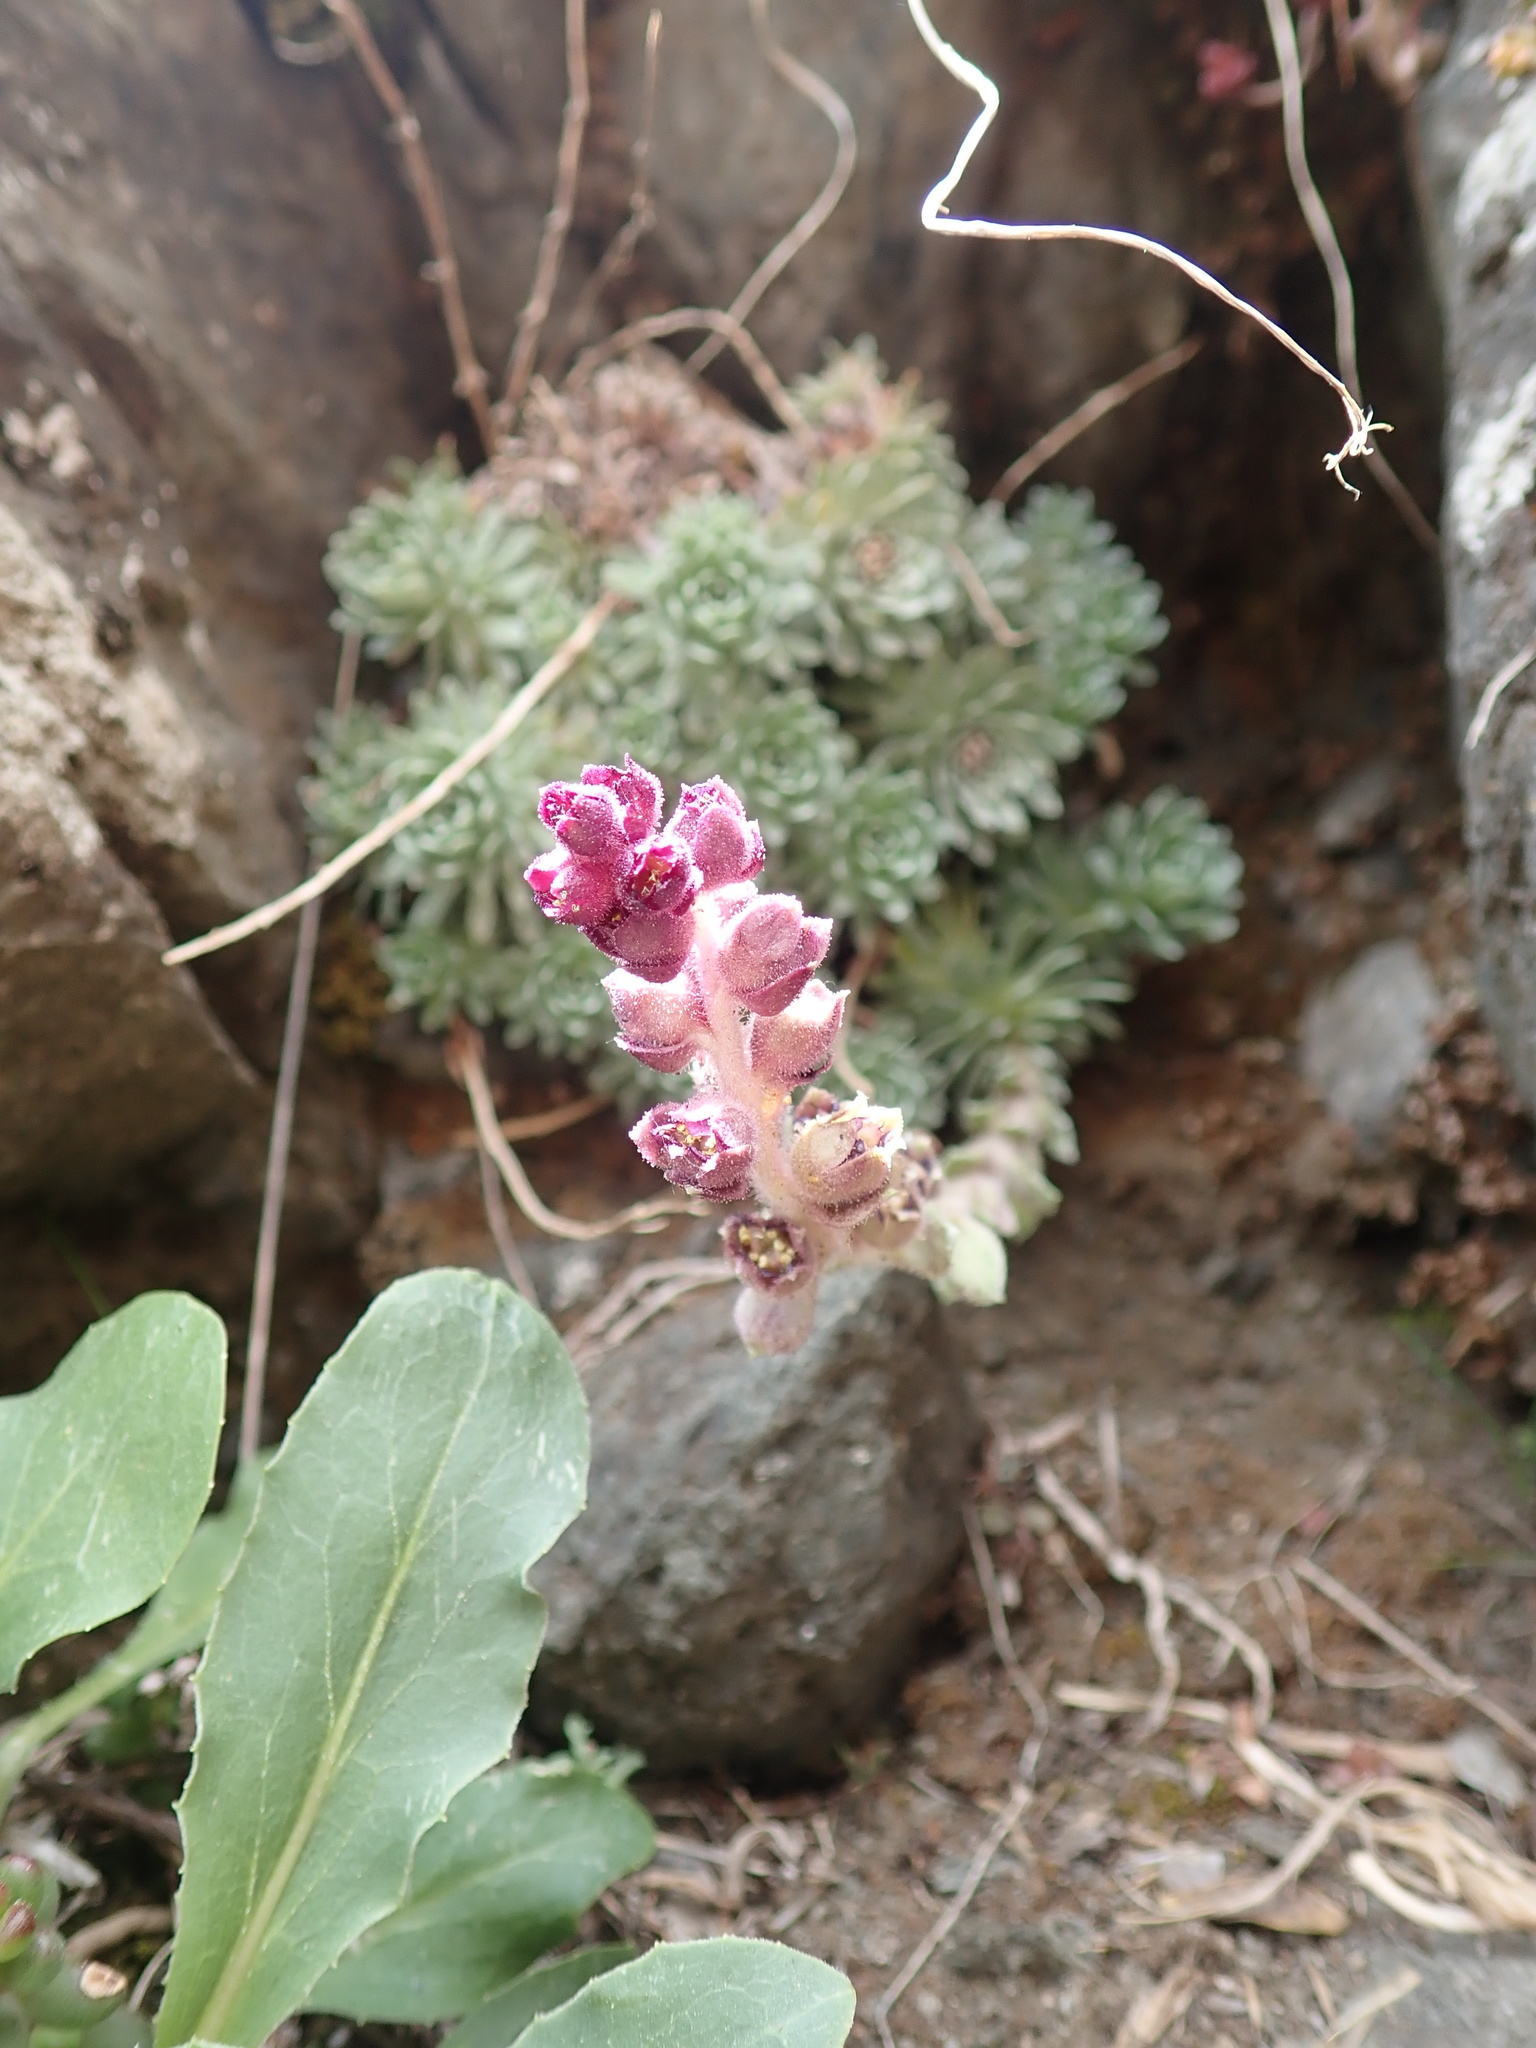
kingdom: Plantae
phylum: Tracheophyta
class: Magnoliopsida
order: Saxifragales
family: Saxifragaceae
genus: Saxifraga
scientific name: Saxifraga sempervivum
